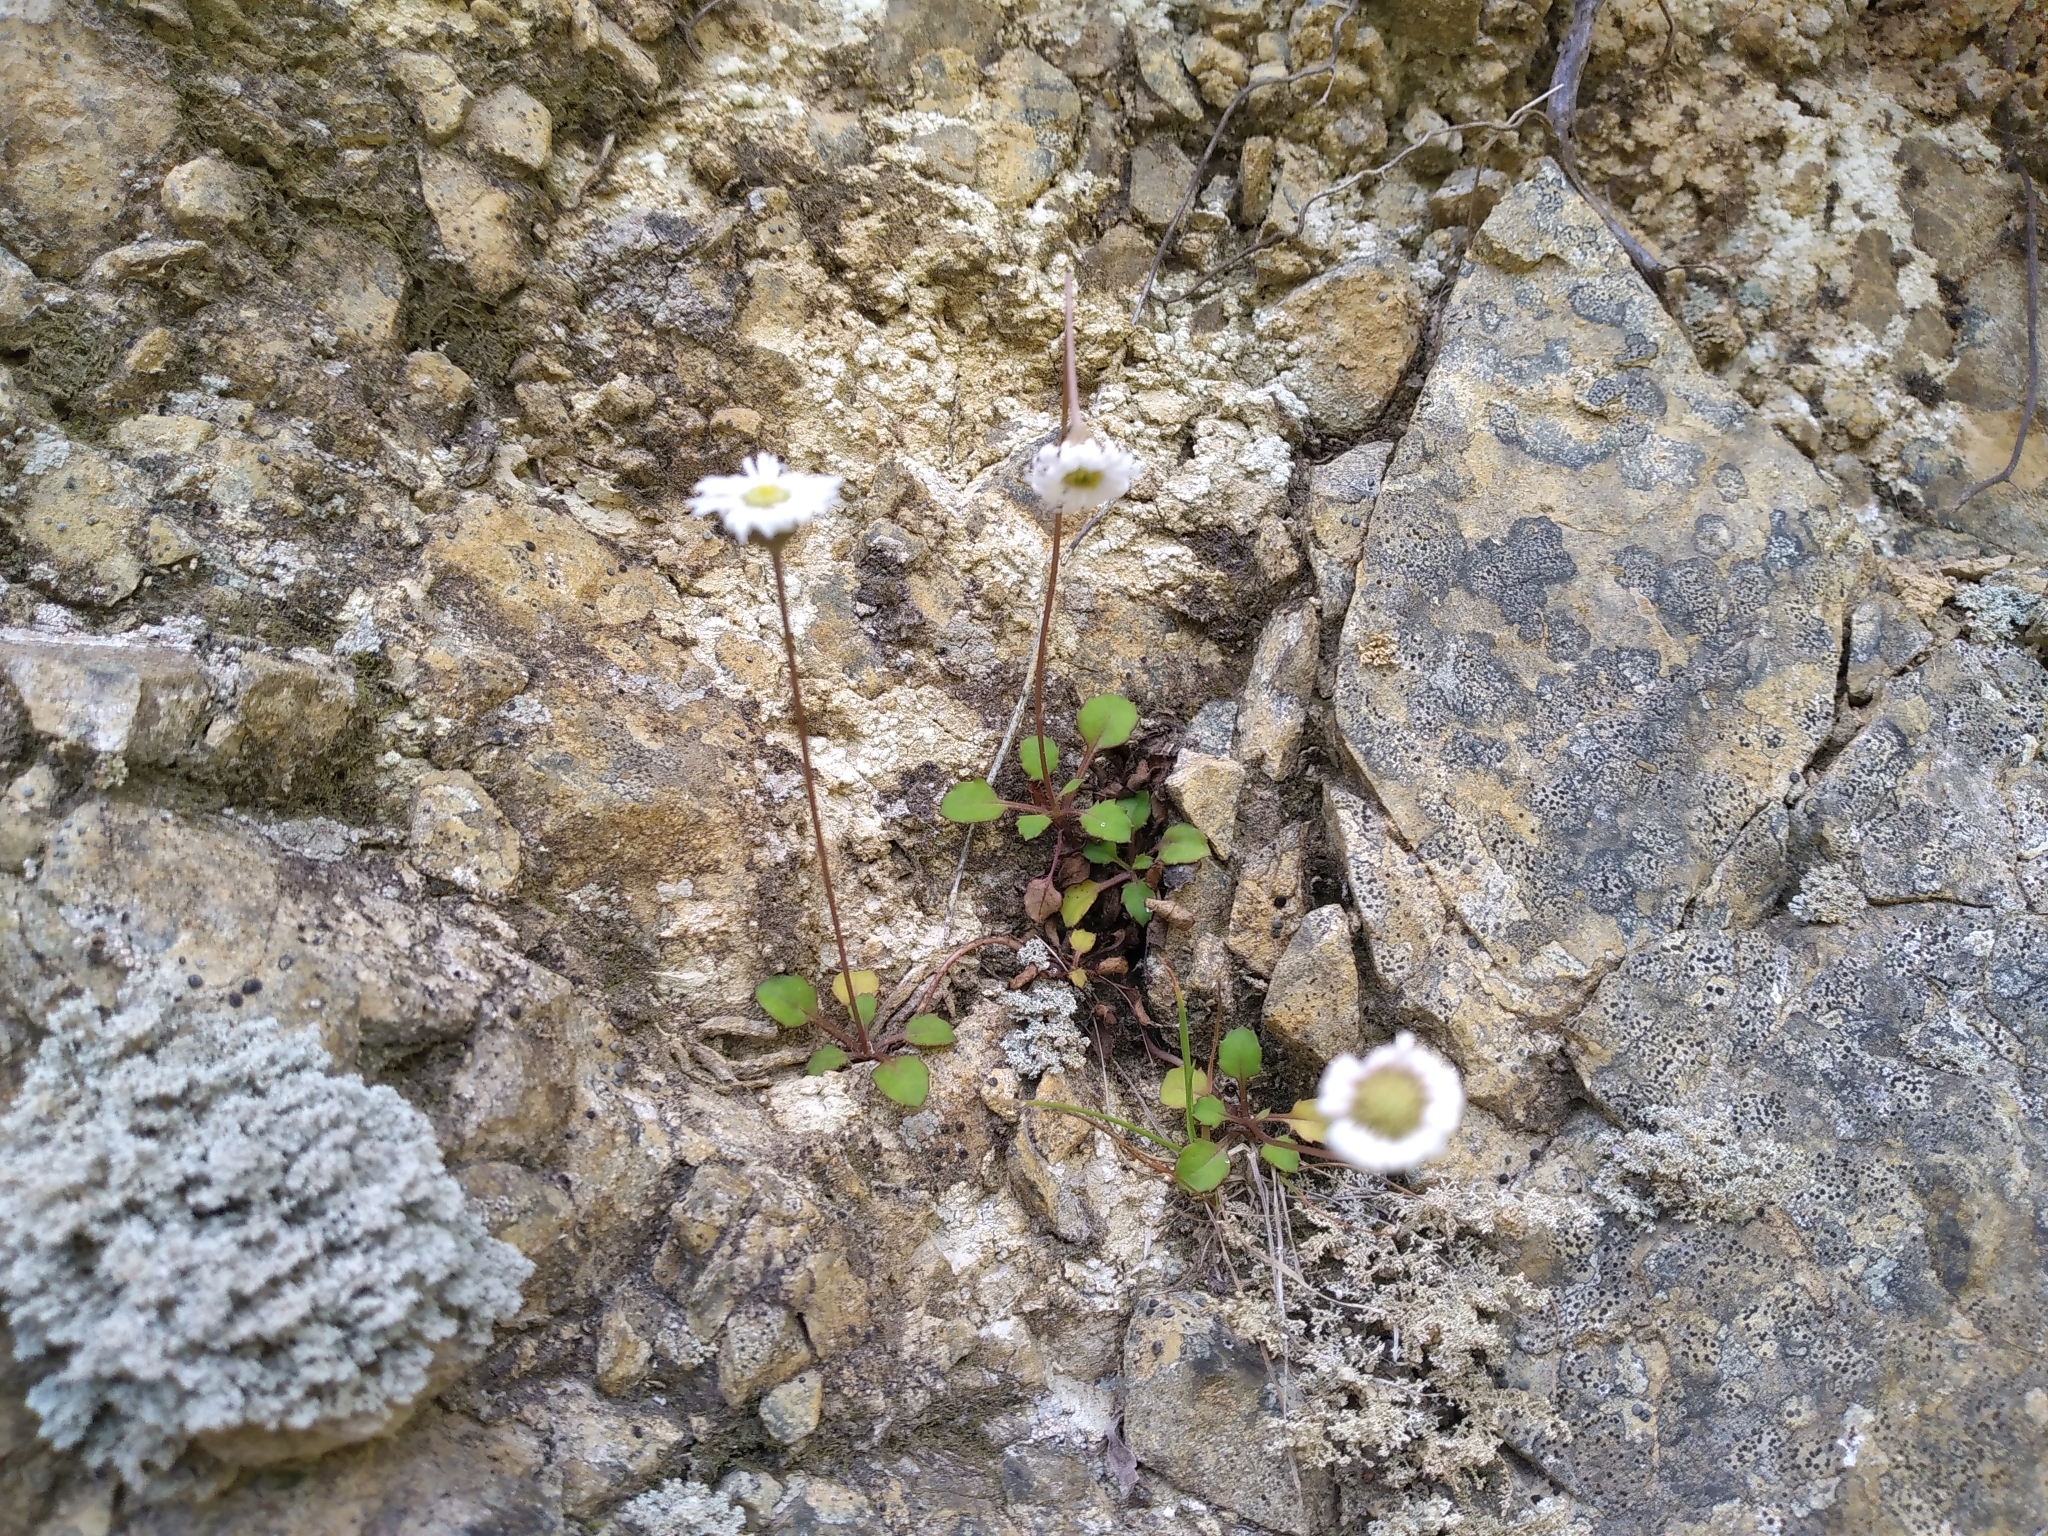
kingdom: Plantae
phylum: Tracheophyta
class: Magnoliopsida
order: Asterales
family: Asteraceae
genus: Lagenophora
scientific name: Lagenophora pumila
